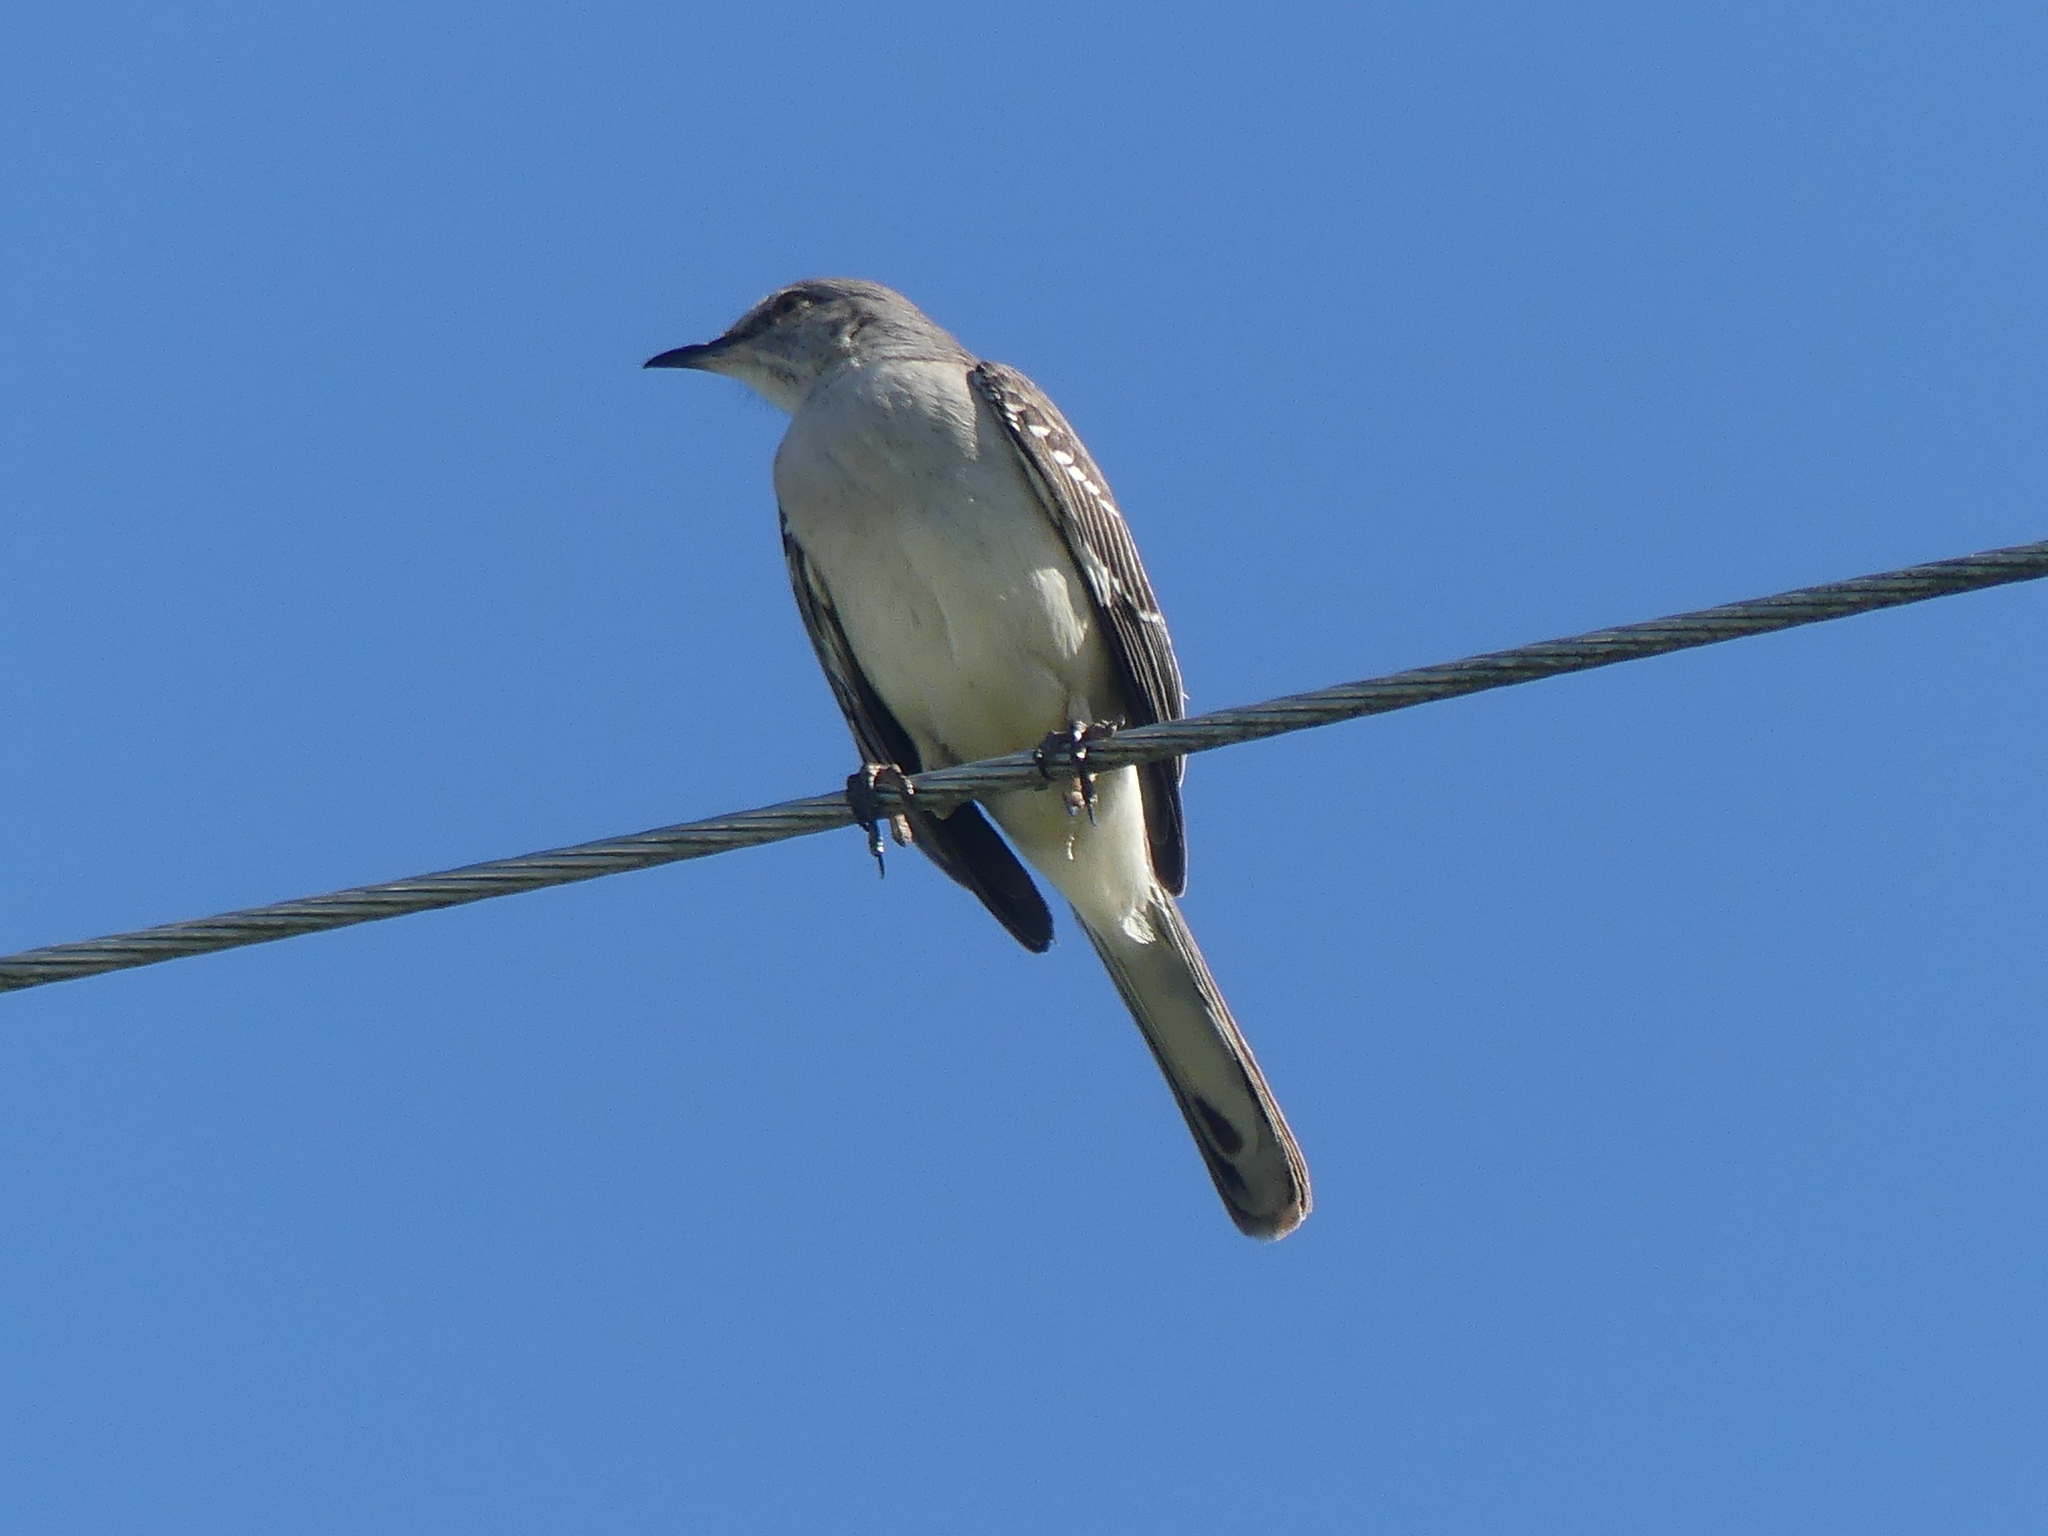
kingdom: Animalia
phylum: Chordata
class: Aves
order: Passeriformes
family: Mimidae
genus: Mimus
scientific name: Mimus polyglottos
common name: Northern mockingbird
